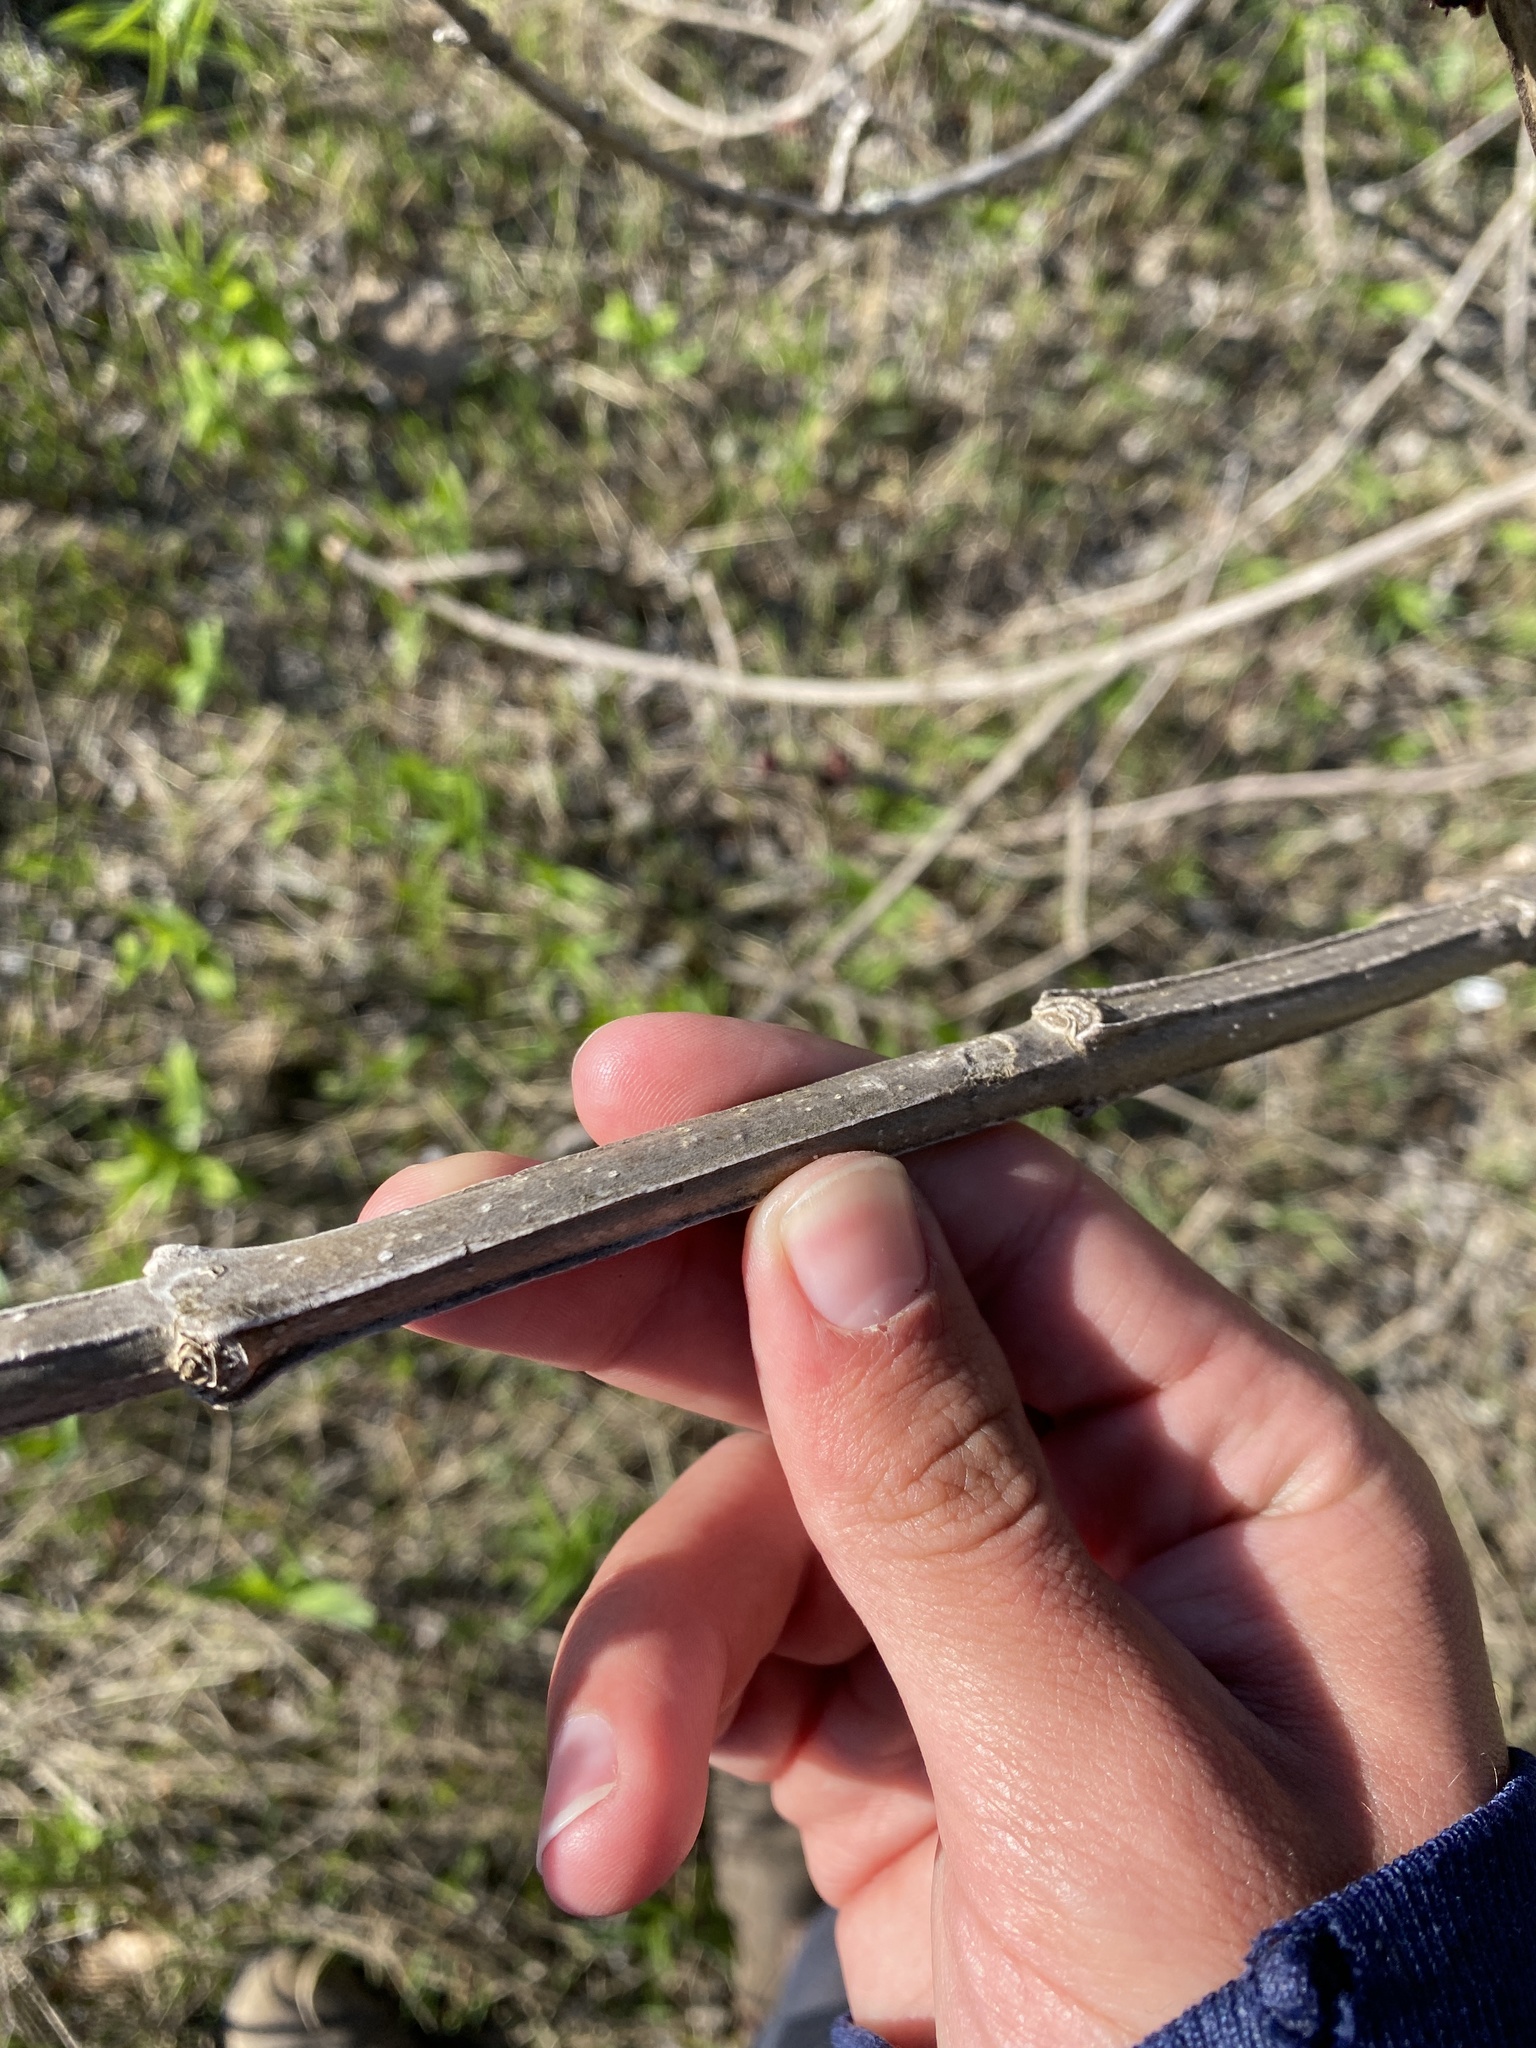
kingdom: Plantae
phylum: Tracheophyta
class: Magnoliopsida
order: Lamiales
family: Oleaceae
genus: Fraxinus
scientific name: Fraxinus quadrangulata
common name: Blue ash
